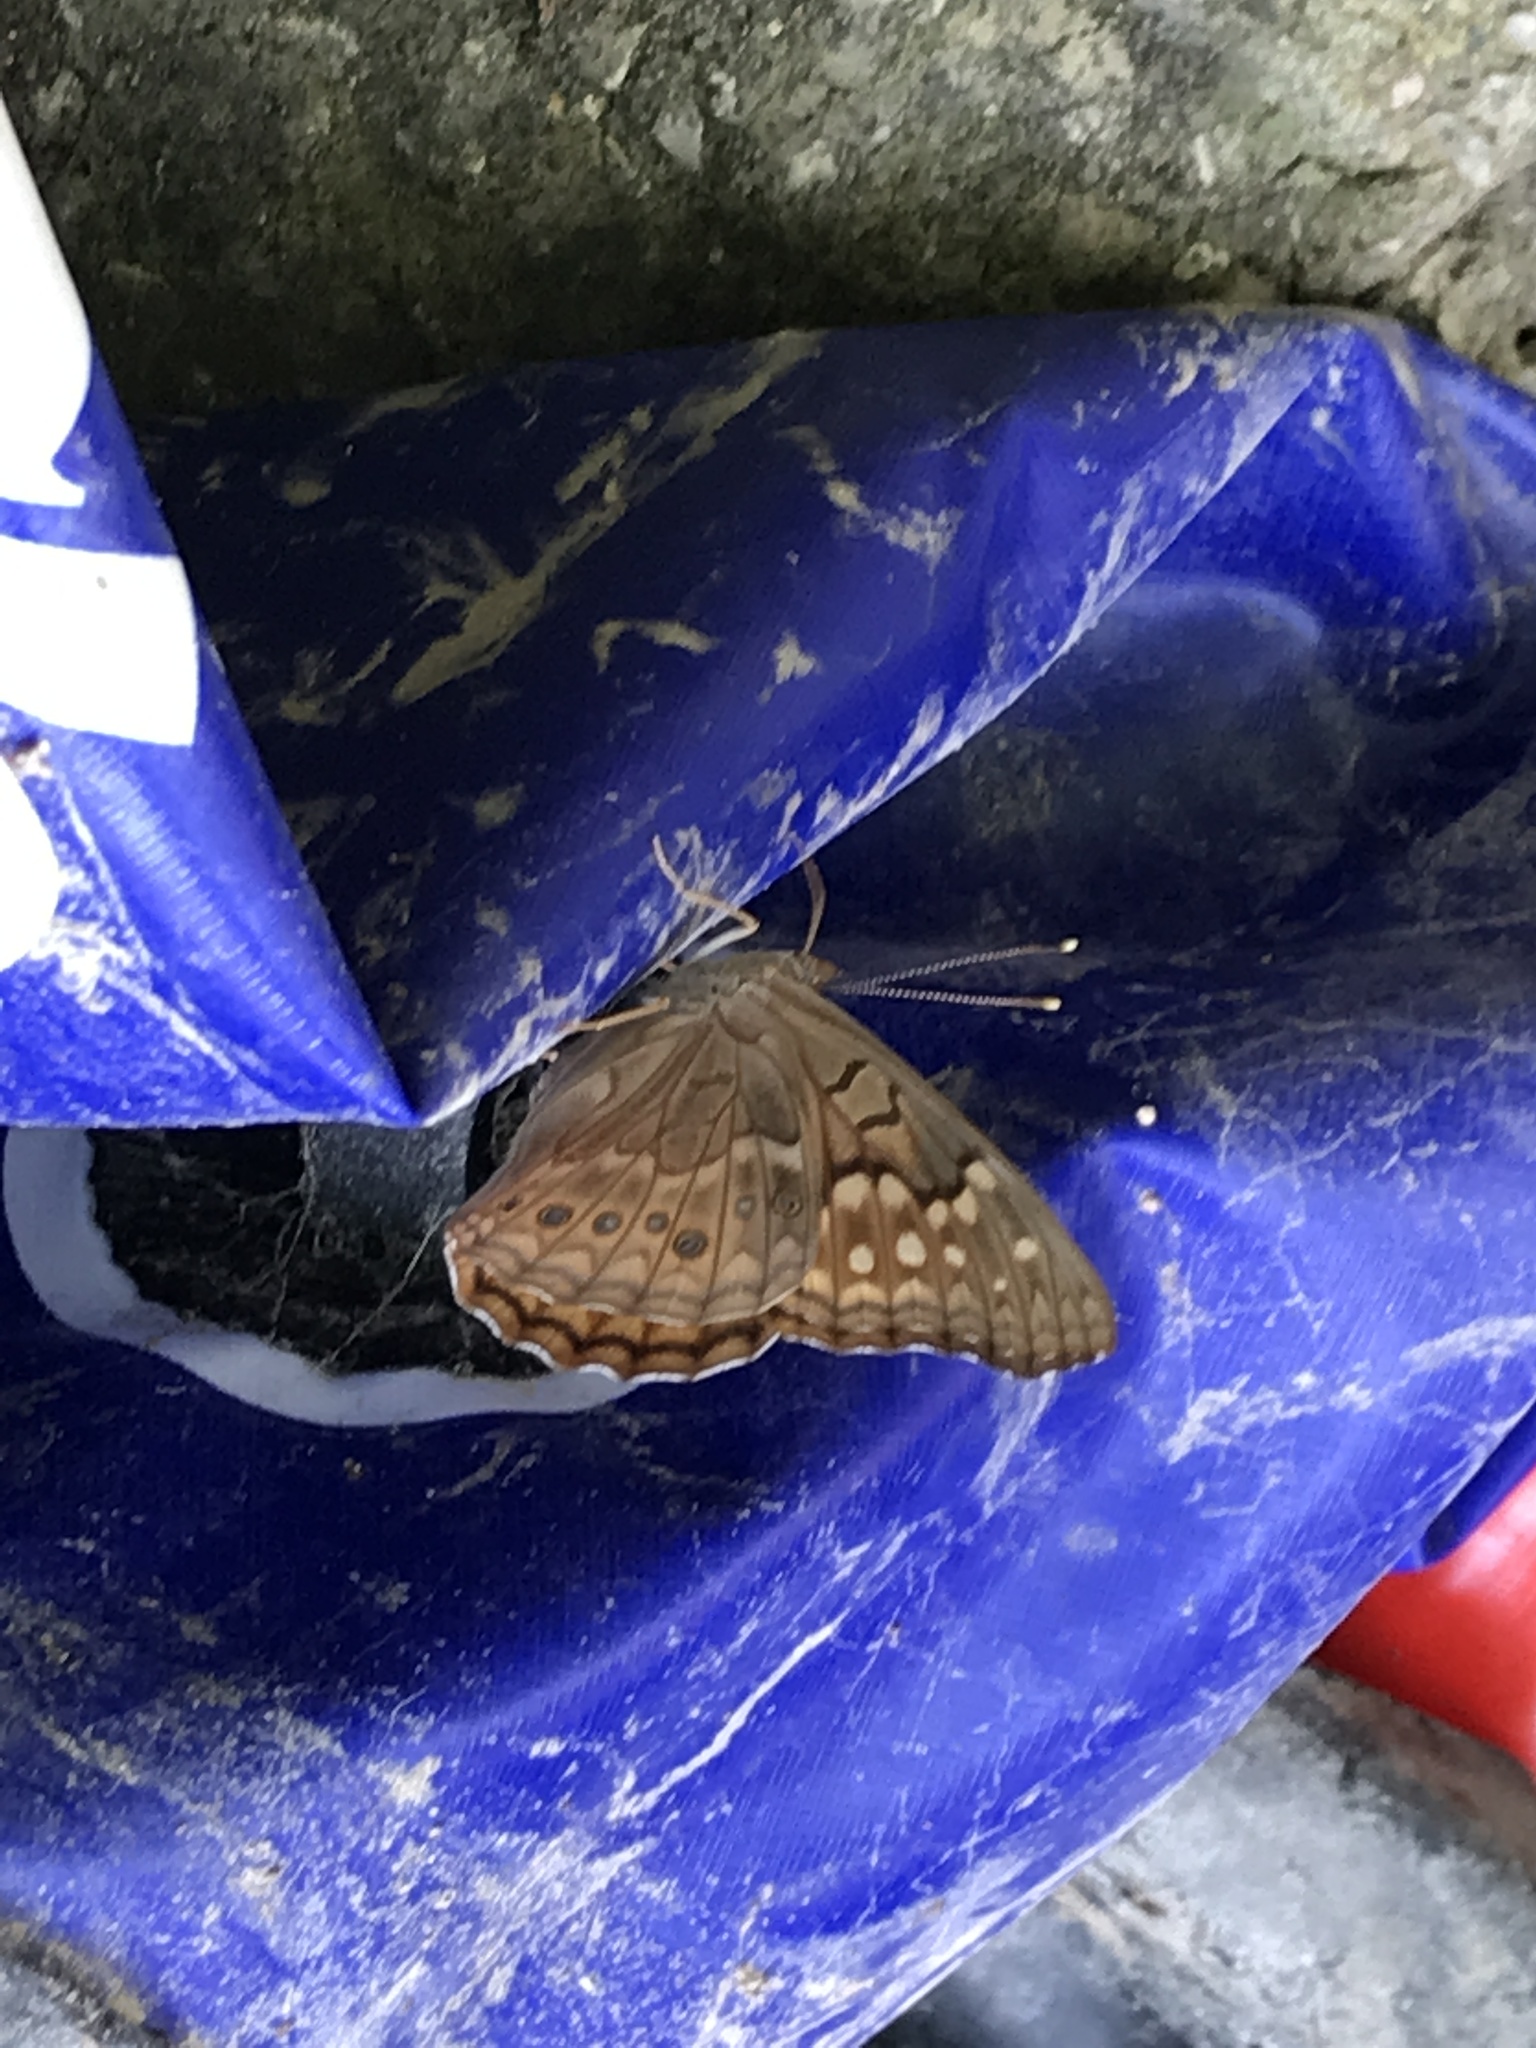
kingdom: Animalia
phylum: Arthropoda
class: Insecta
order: Lepidoptera
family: Nymphalidae
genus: Asterocampa
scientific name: Asterocampa clyton
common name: Tawny emperor
